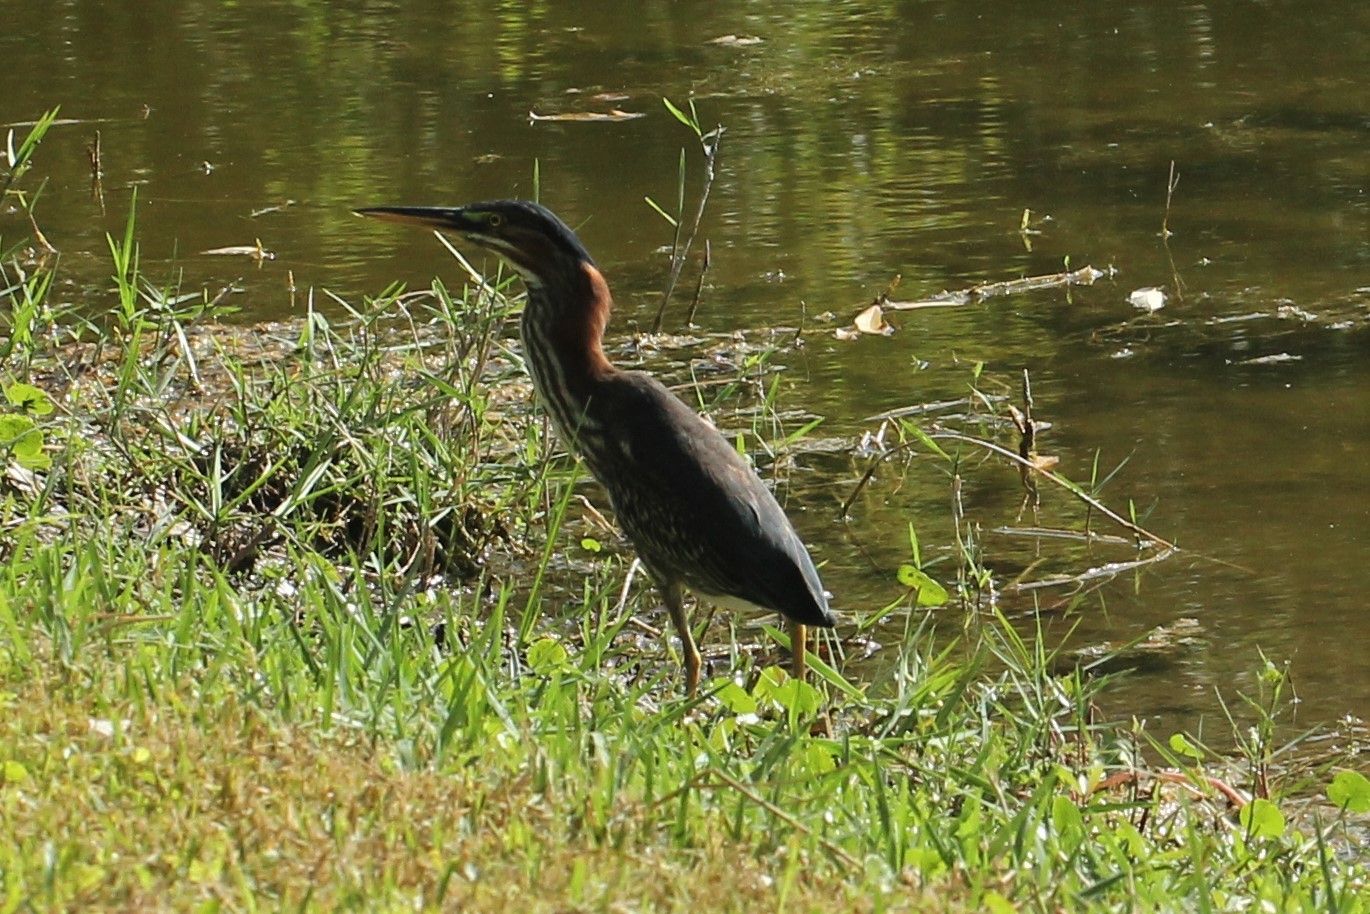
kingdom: Animalia
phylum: Chordata
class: Aves
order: Pelecaniformes
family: Ardeidae
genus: Butorides
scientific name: Butorides virescens
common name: Green heron
